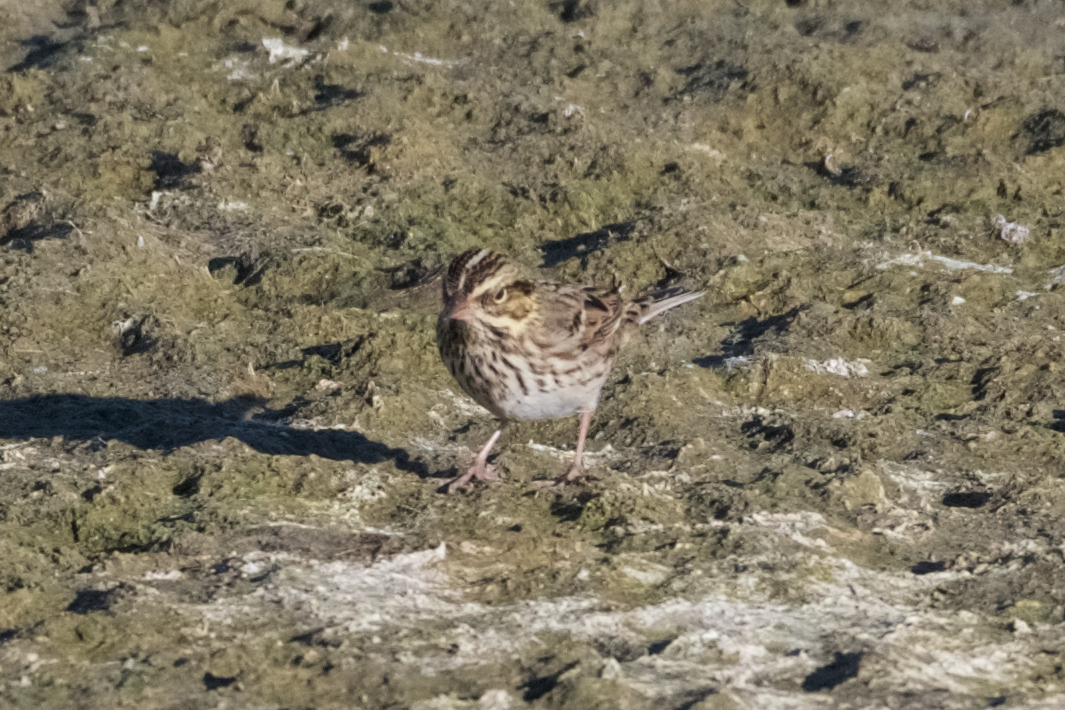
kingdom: Animalia
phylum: Chordata
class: Aves
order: Passeriformes
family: Passerellidae
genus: Passerculus
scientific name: Passerculus sandwichensis
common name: Savannah sparrow
